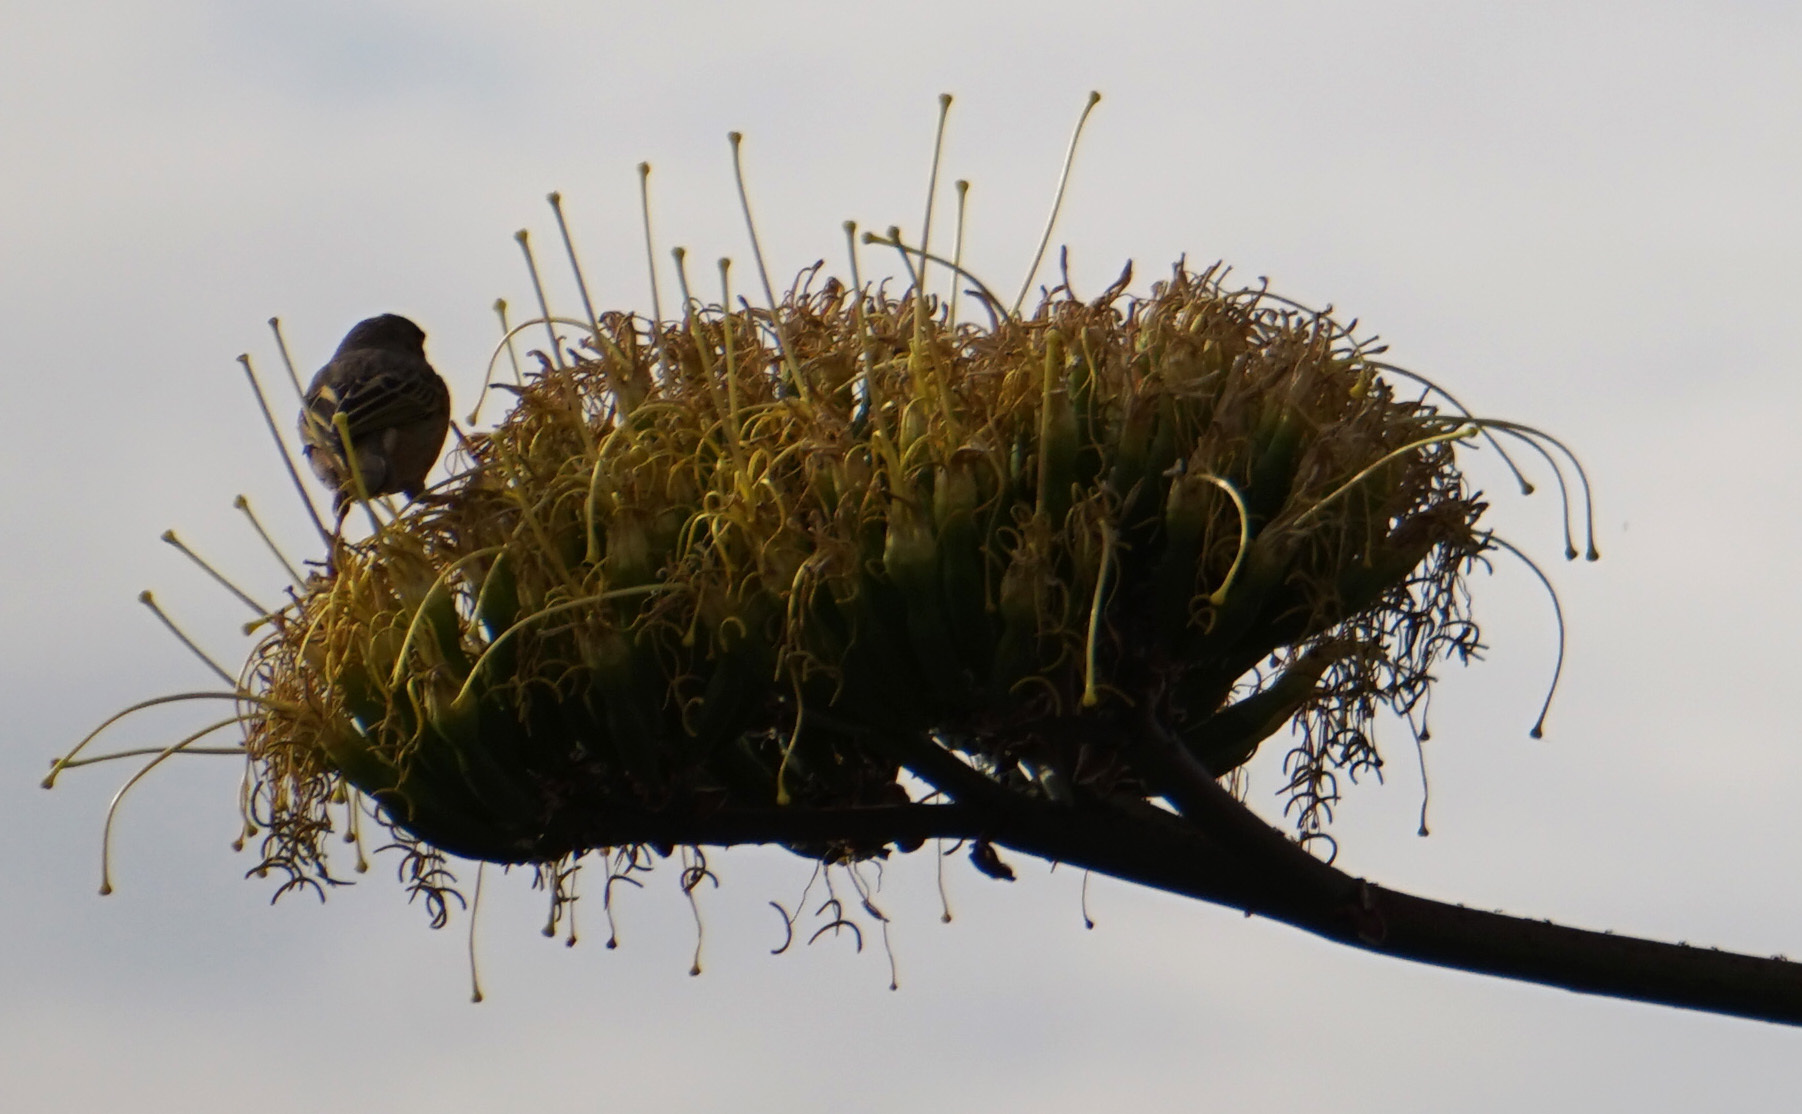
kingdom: Animalia
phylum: Chordata
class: Aves
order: Passeriformes
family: Ploceidae
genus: Ploceus
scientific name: Ploceus baglafecht
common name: Baglafecht weaver
